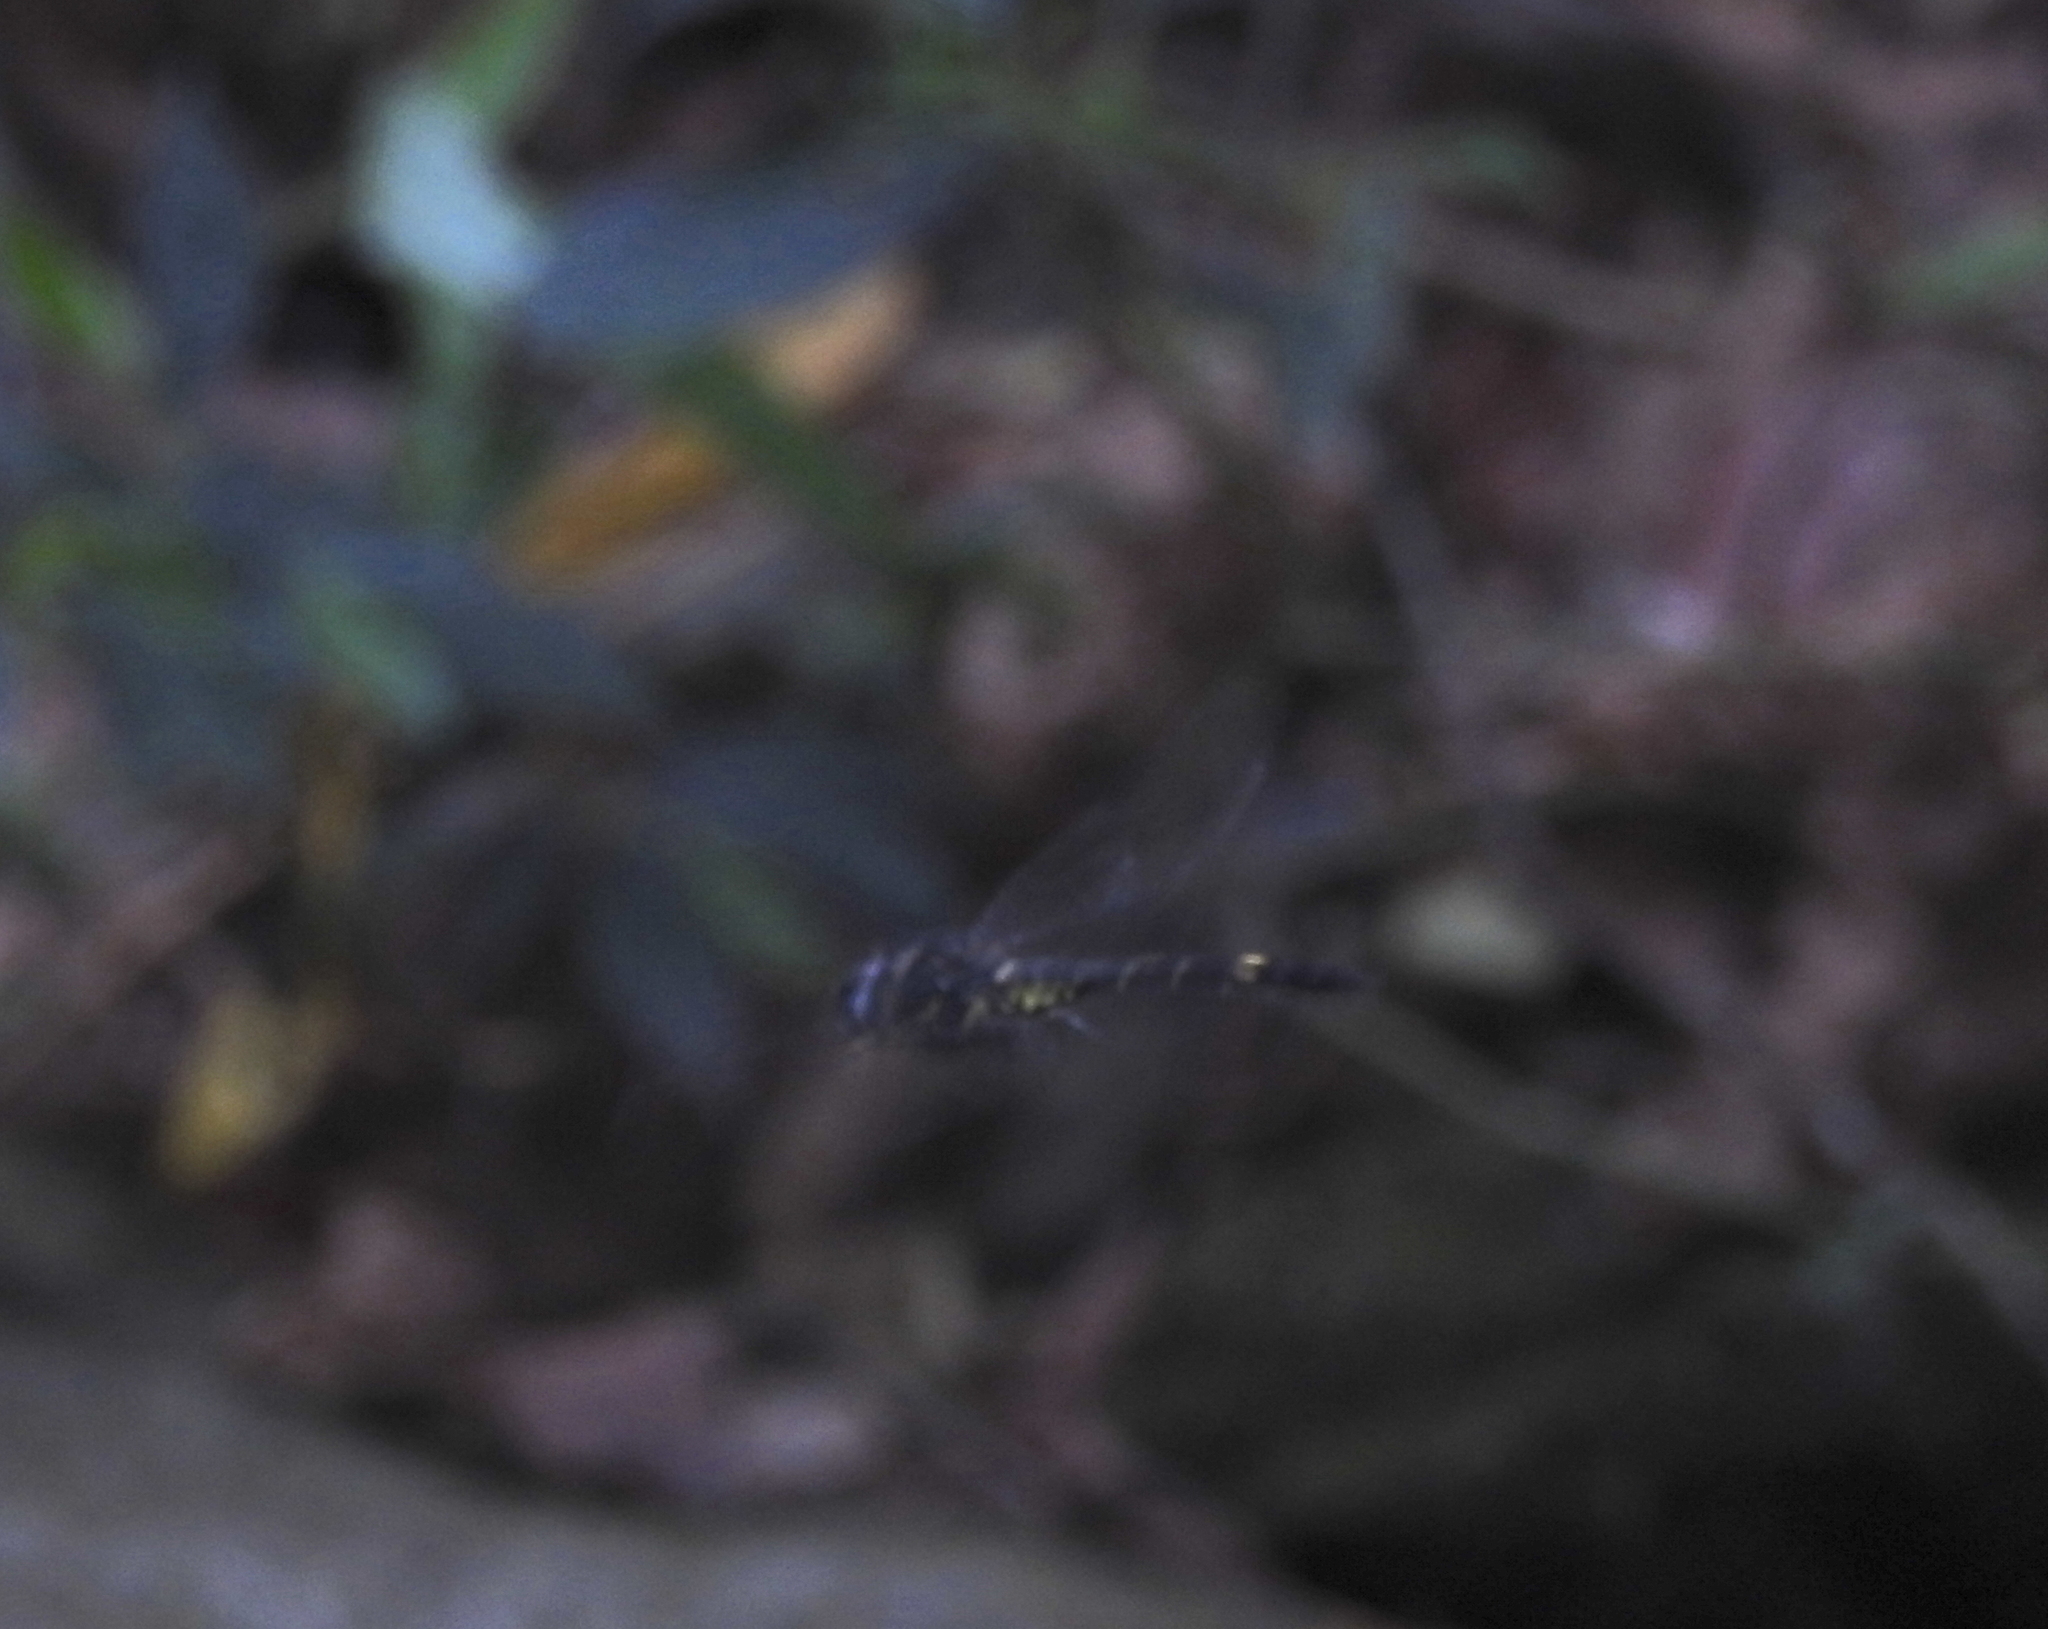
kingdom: Animalia
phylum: Arthropoda
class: Insecta
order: Odonata
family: Libellulidae
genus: Zygonyx
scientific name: Zygonyx iris
